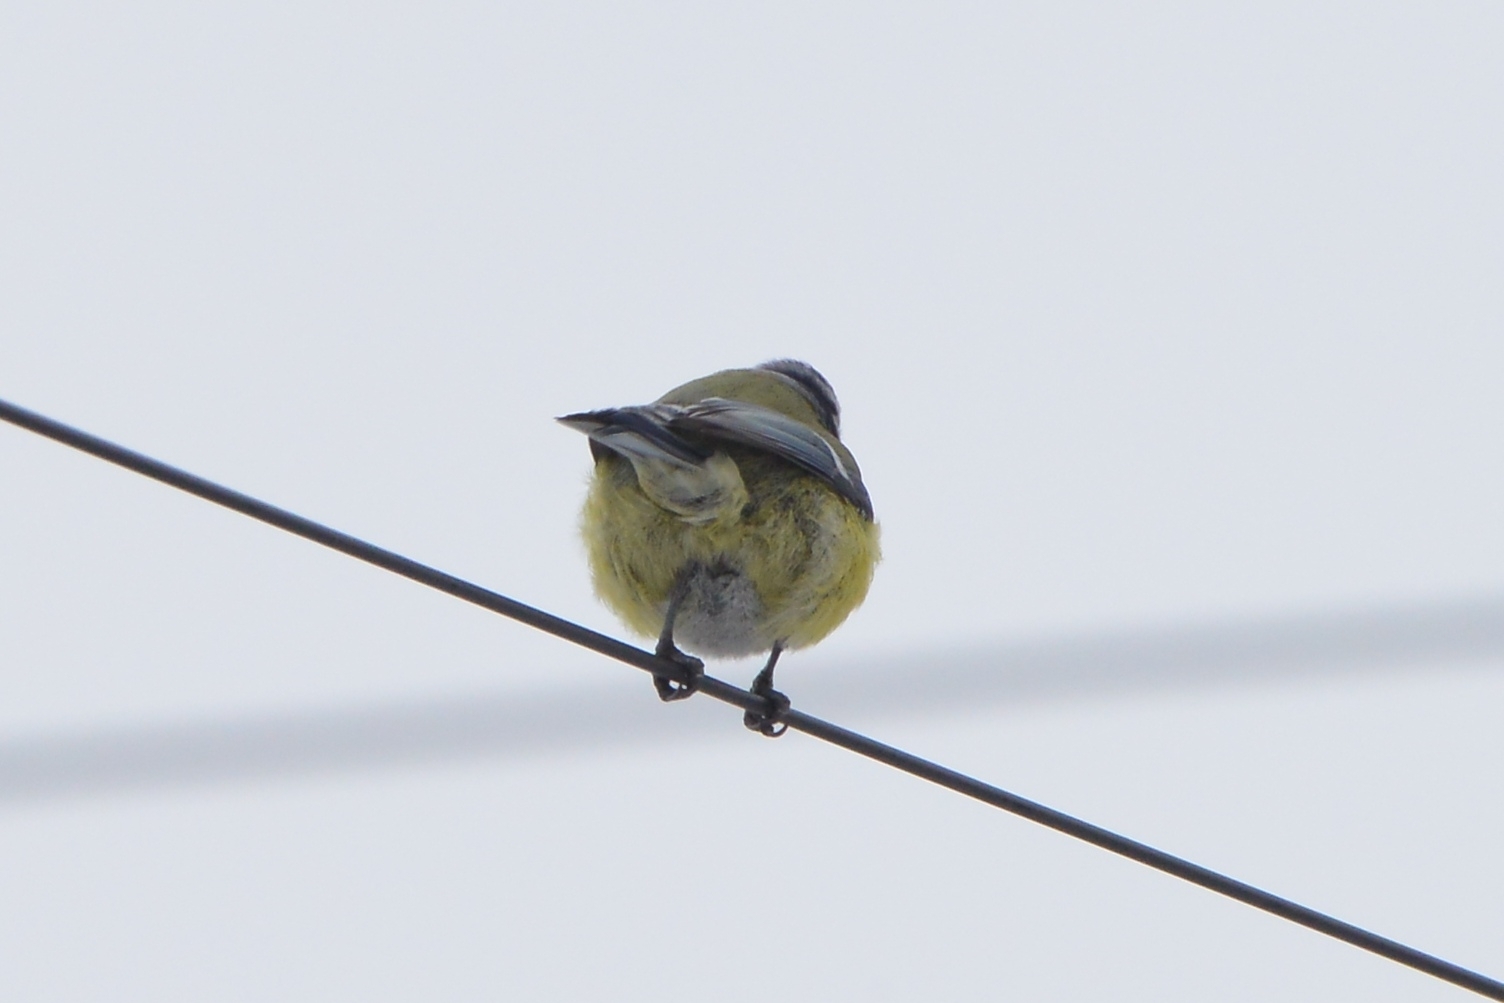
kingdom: Animalia
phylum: Chordata
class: Aves
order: Passeriformes
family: Paridae
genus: Cyanistes
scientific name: Cyanistes caeruleus
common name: Eurasian blue tit
